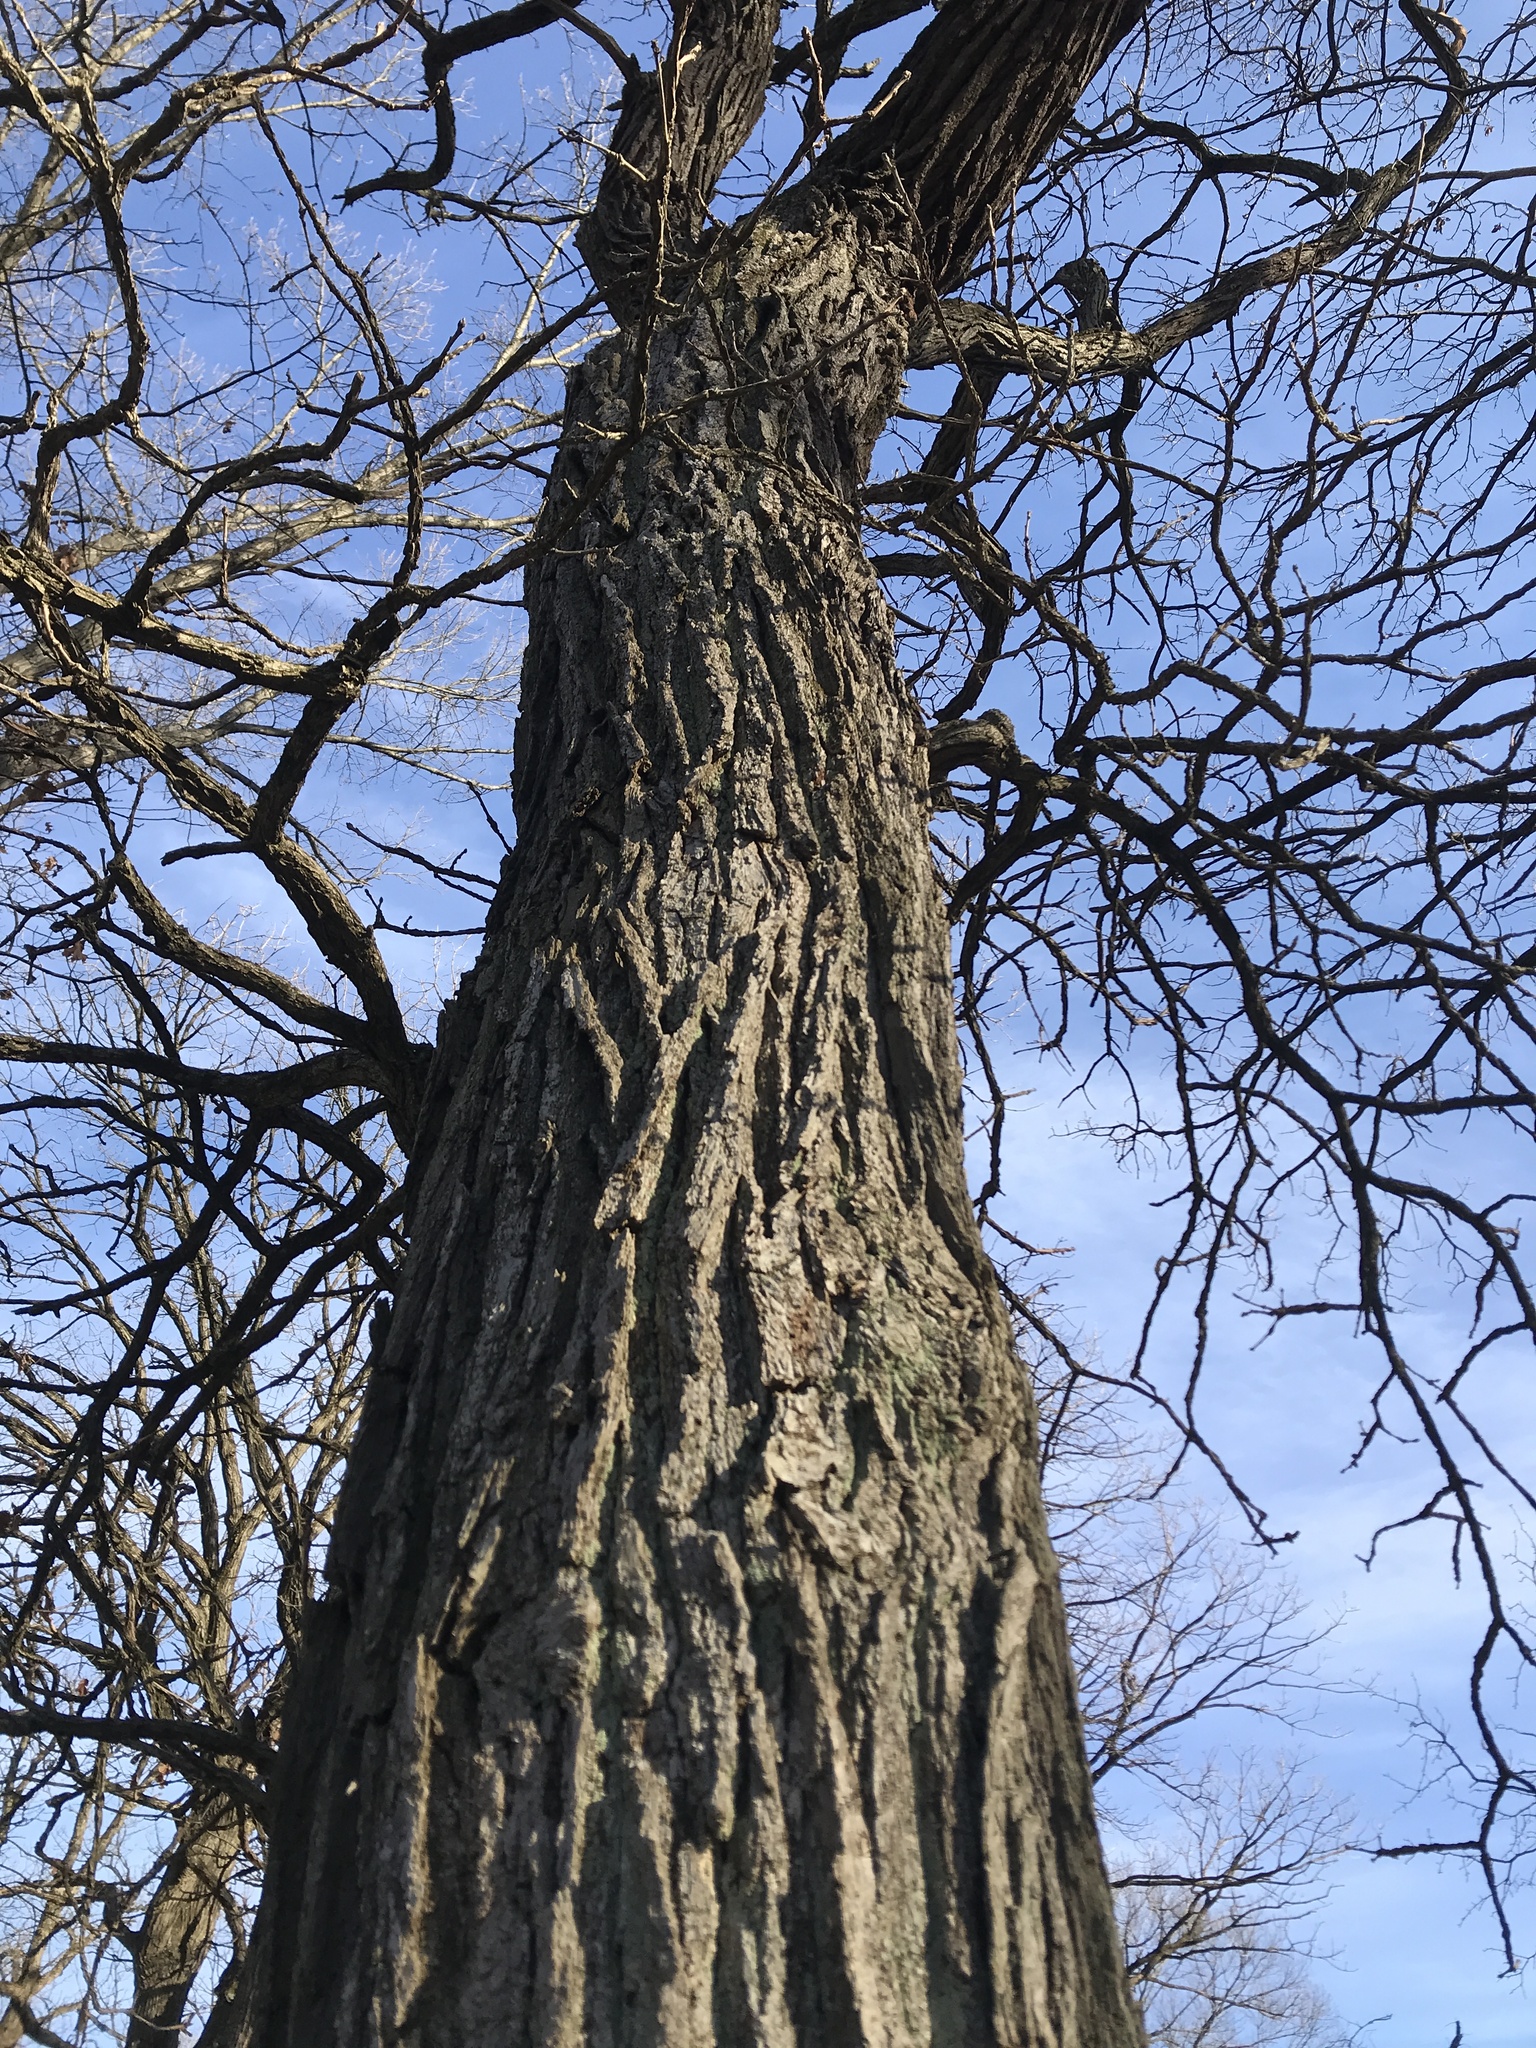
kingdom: Plantae
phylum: Tracheophyta
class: Magnoliopsida
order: Fagales
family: Fagaceae
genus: Quercus
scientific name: Quercus macrocarpa
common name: Bur oak
